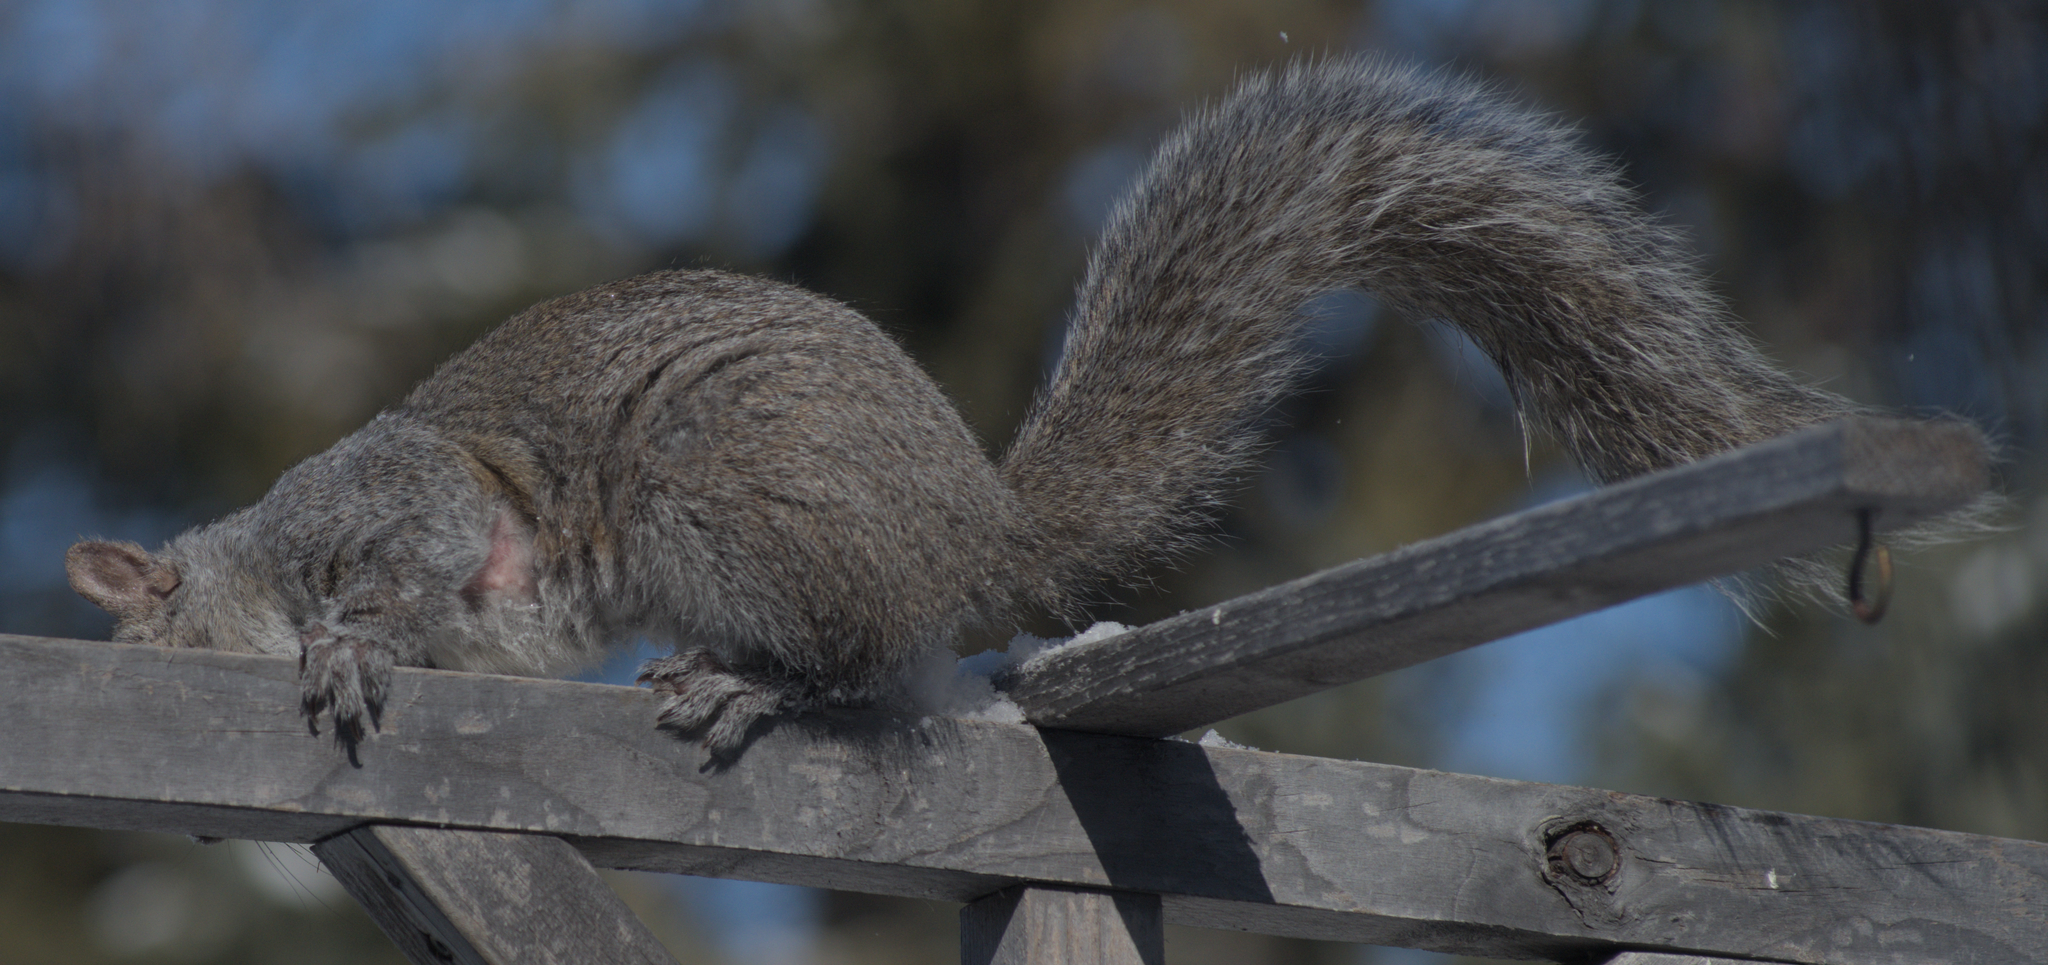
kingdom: Animalia
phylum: Chordata
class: Mammalia
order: Rodentia
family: Sciuridae
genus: Sciurus
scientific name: Sciurus carolinensis
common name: Eastern gray squirrel
